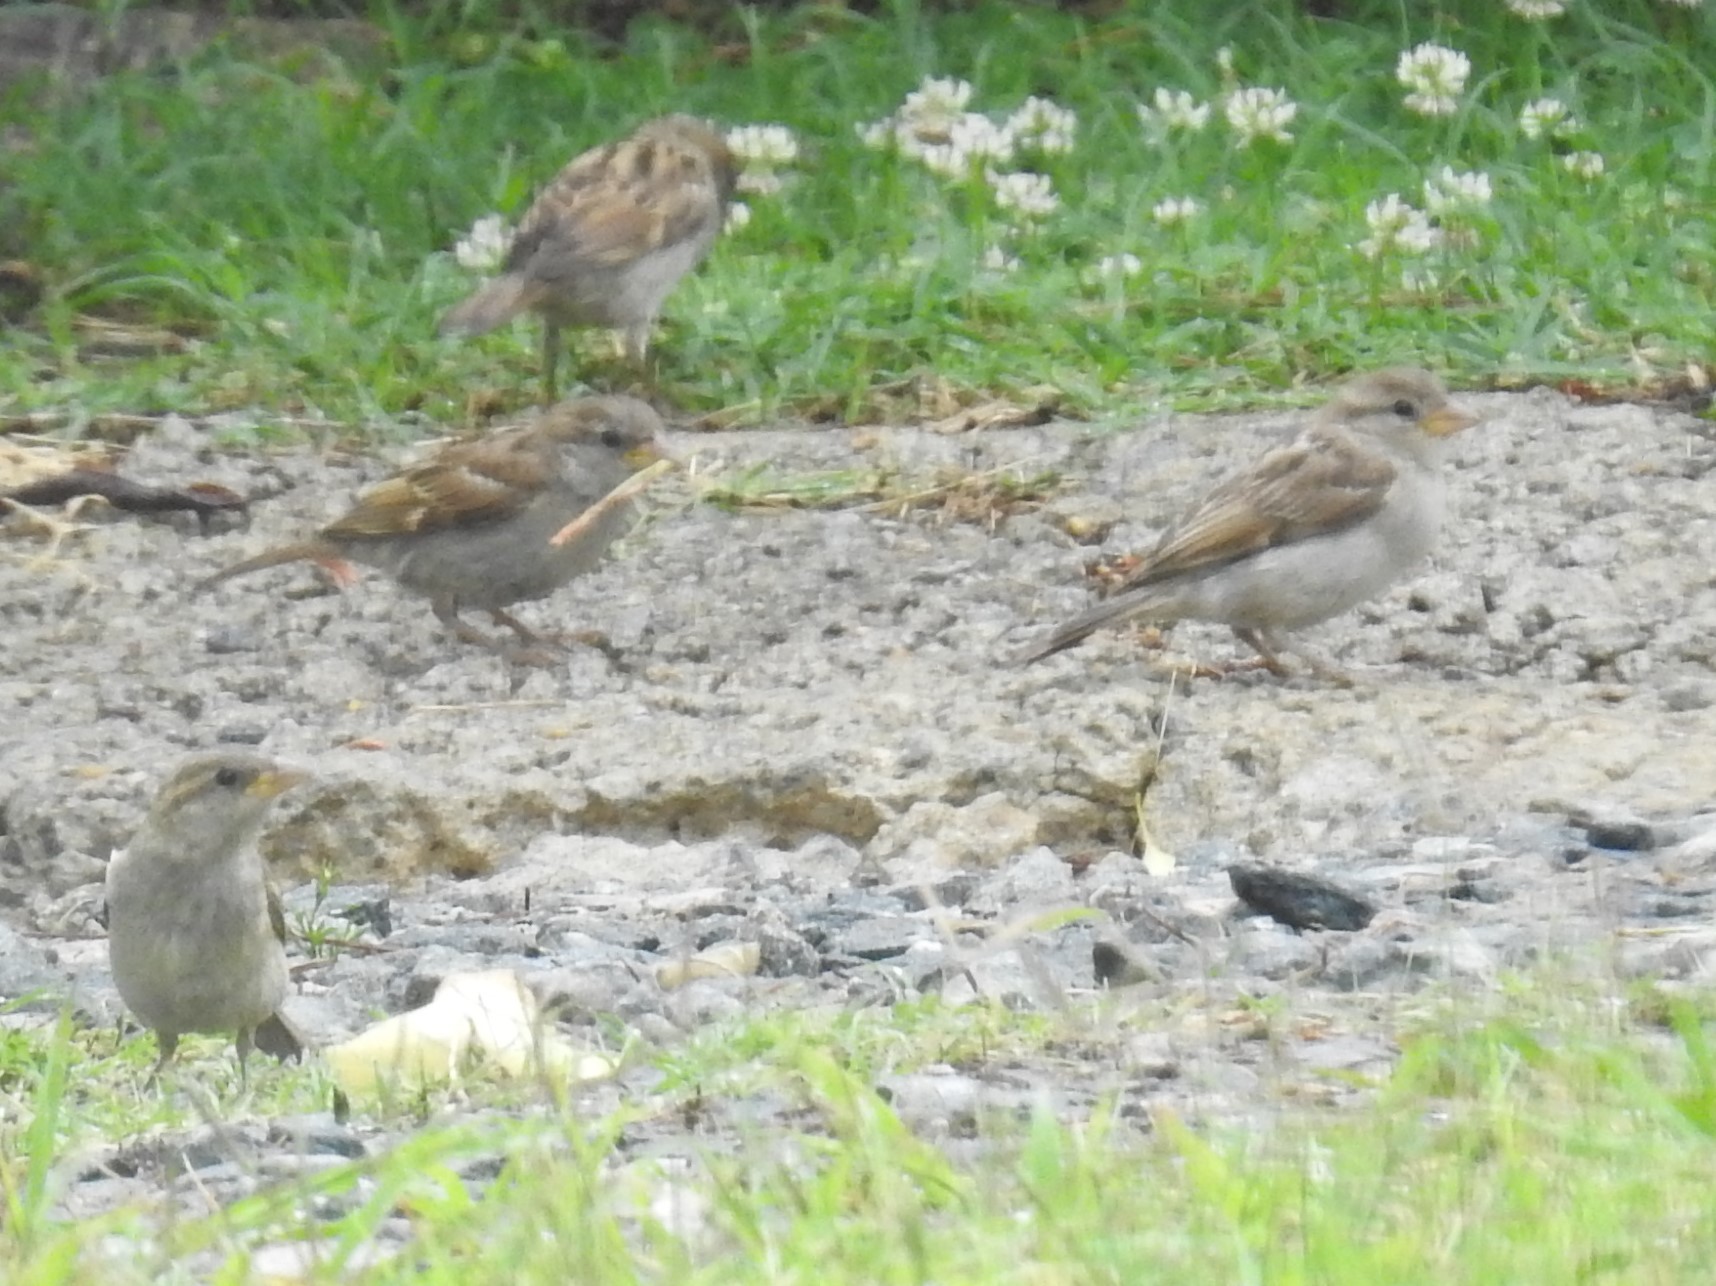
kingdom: Animalia
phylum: Chordata
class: Aves
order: Passeriformes
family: Passeridae
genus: Passer
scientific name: Passer domesticus
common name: House sparrow
